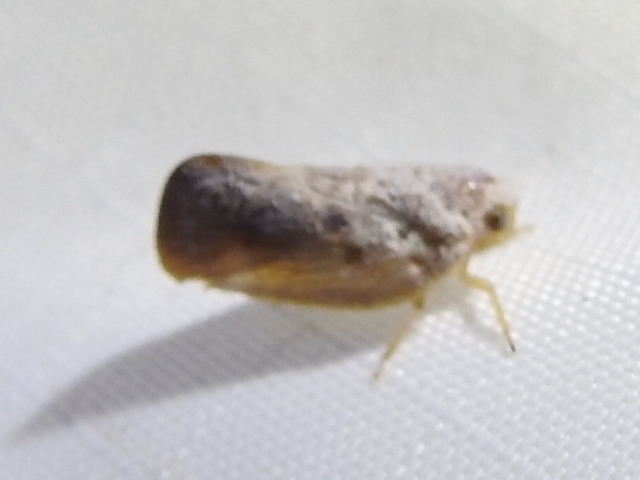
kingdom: Animalia
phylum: Arthropoda
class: Insecta
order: Hemiptera
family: Flatidae
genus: Metcalfa
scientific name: Metcalfa pruinosa
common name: Citrus flatid planthopper
